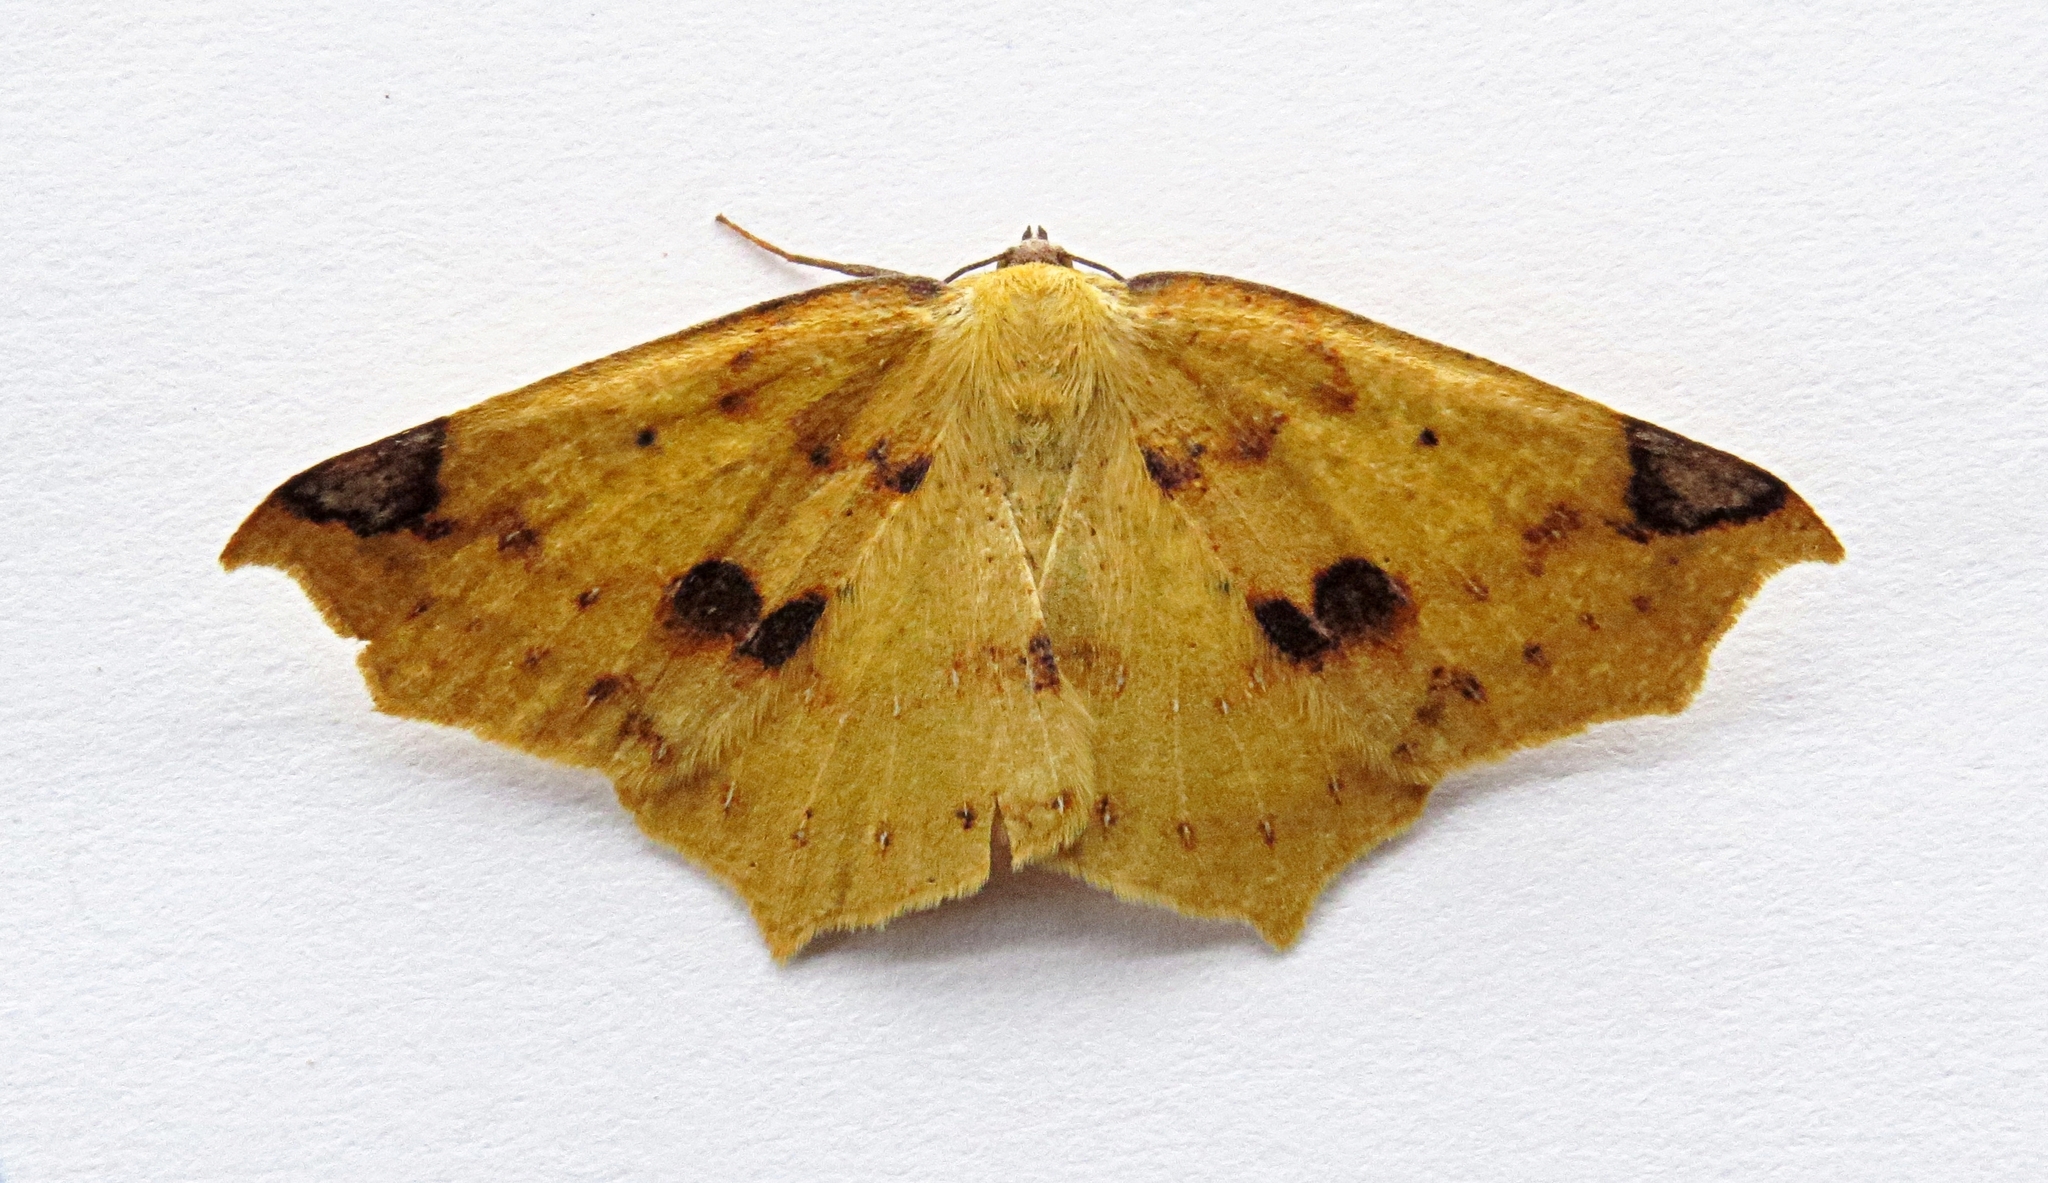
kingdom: Animalia
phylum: Arthropoda
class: Insecta
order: Lepidoptera
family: Geometridae
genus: Antepione
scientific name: Antepione thisoaria
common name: Variable antipione
